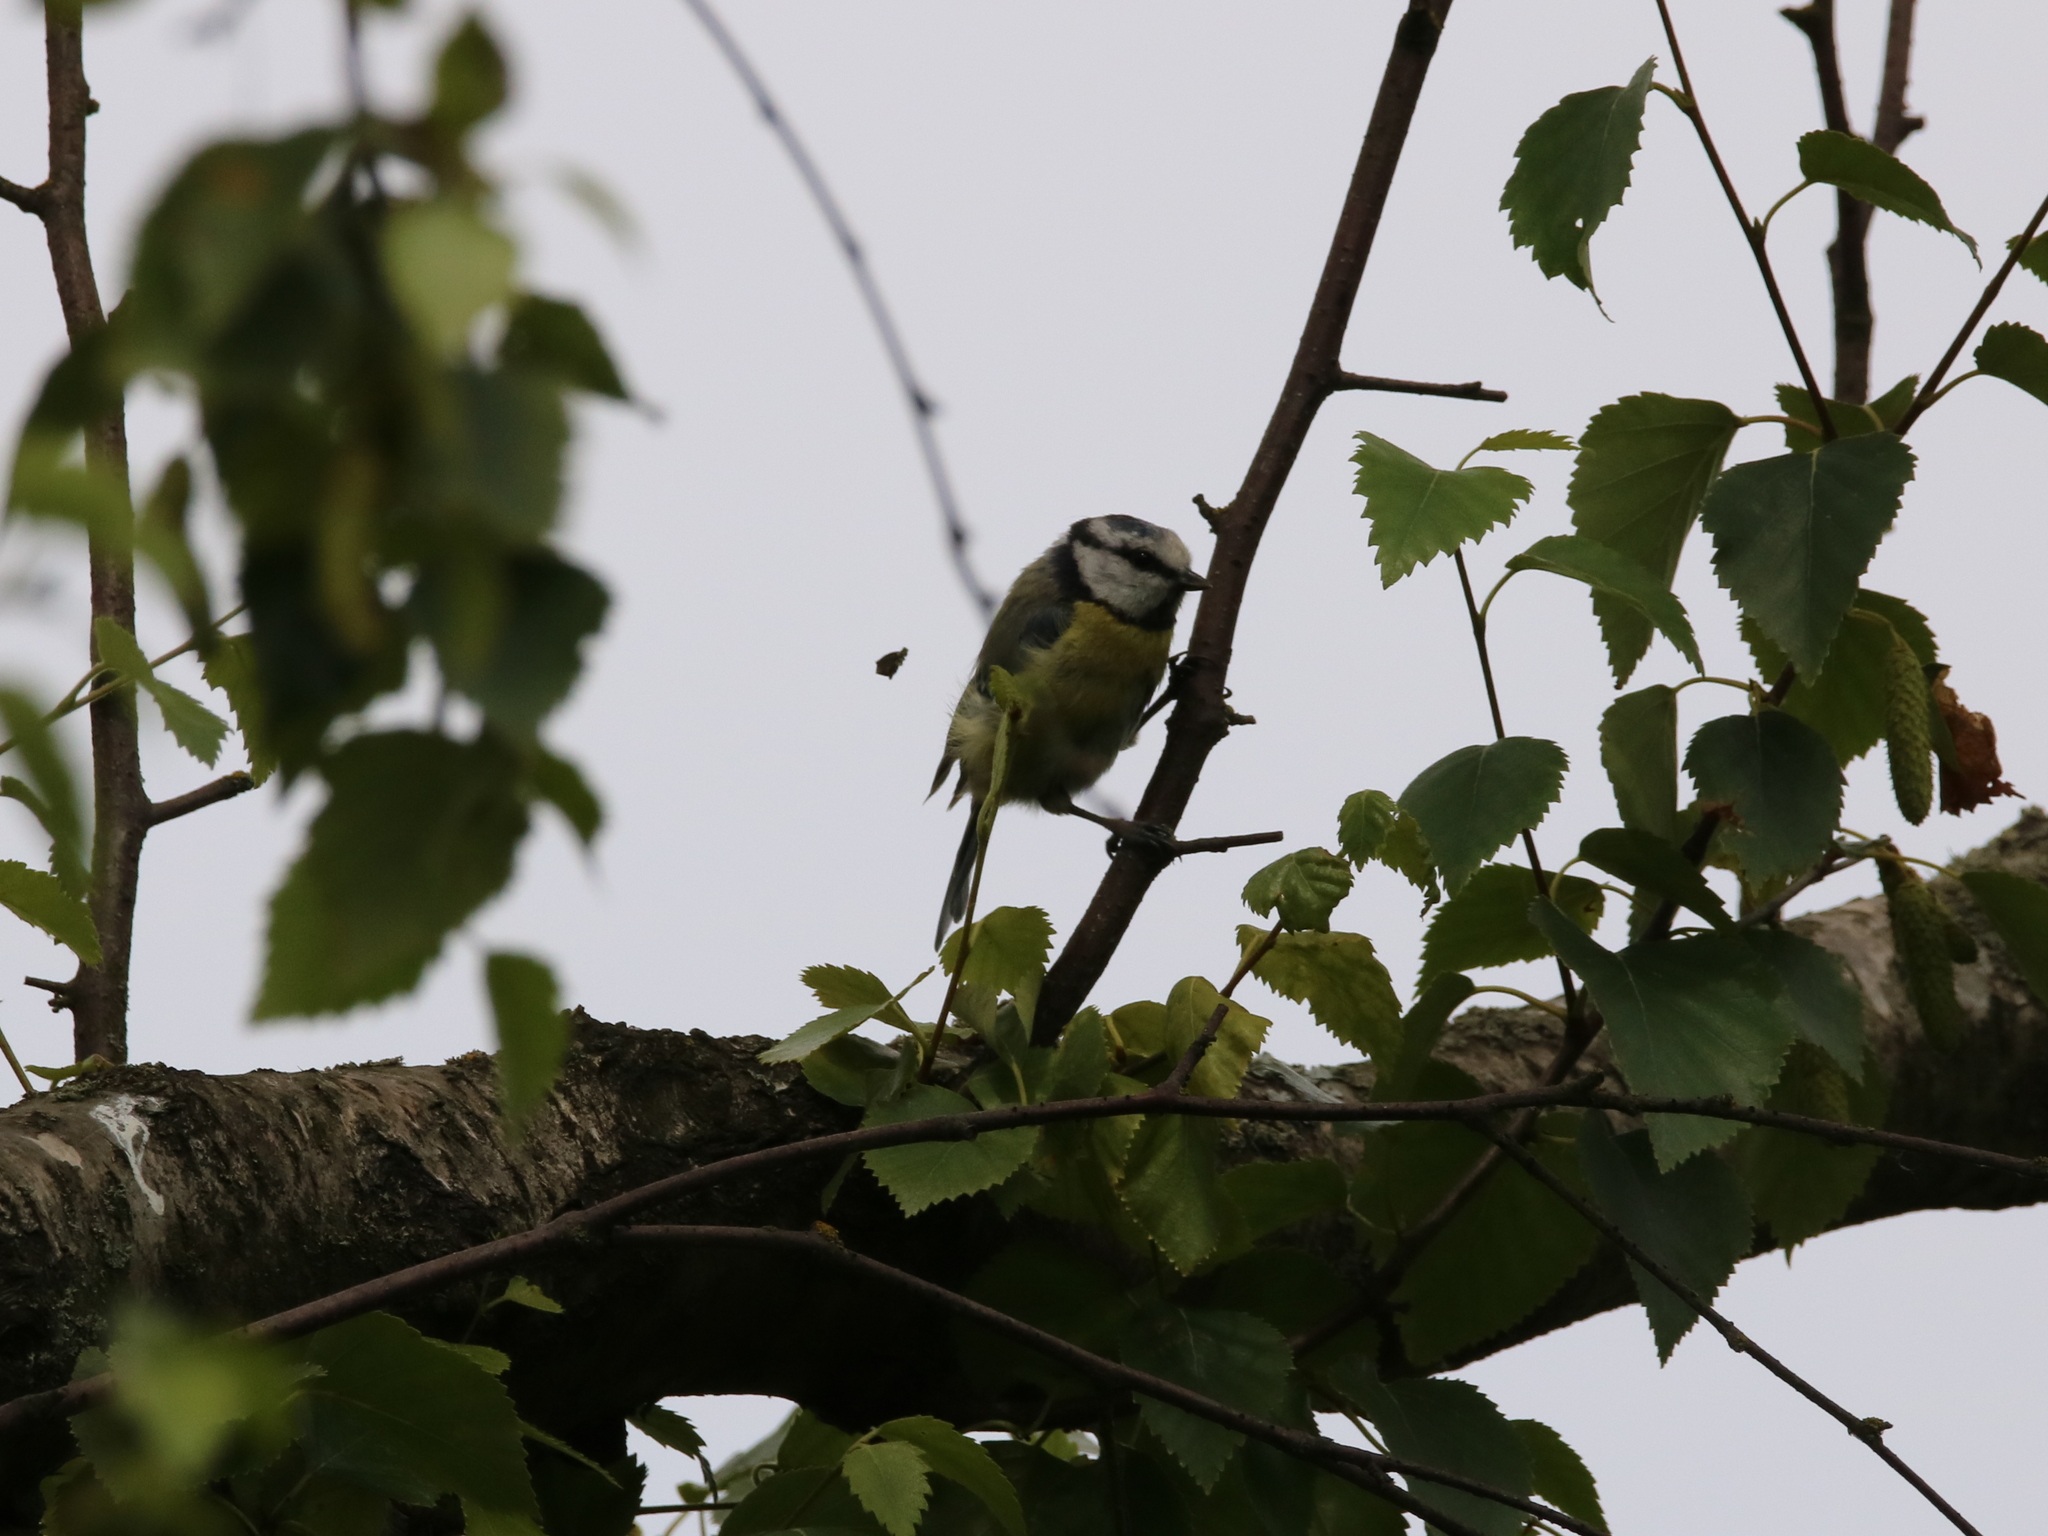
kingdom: Animalia
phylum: Chordata
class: Aves
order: Passeriformes
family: Paridae
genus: Cyanistes
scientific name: Cyanistes caeruleus
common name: Eurasian blue tit
